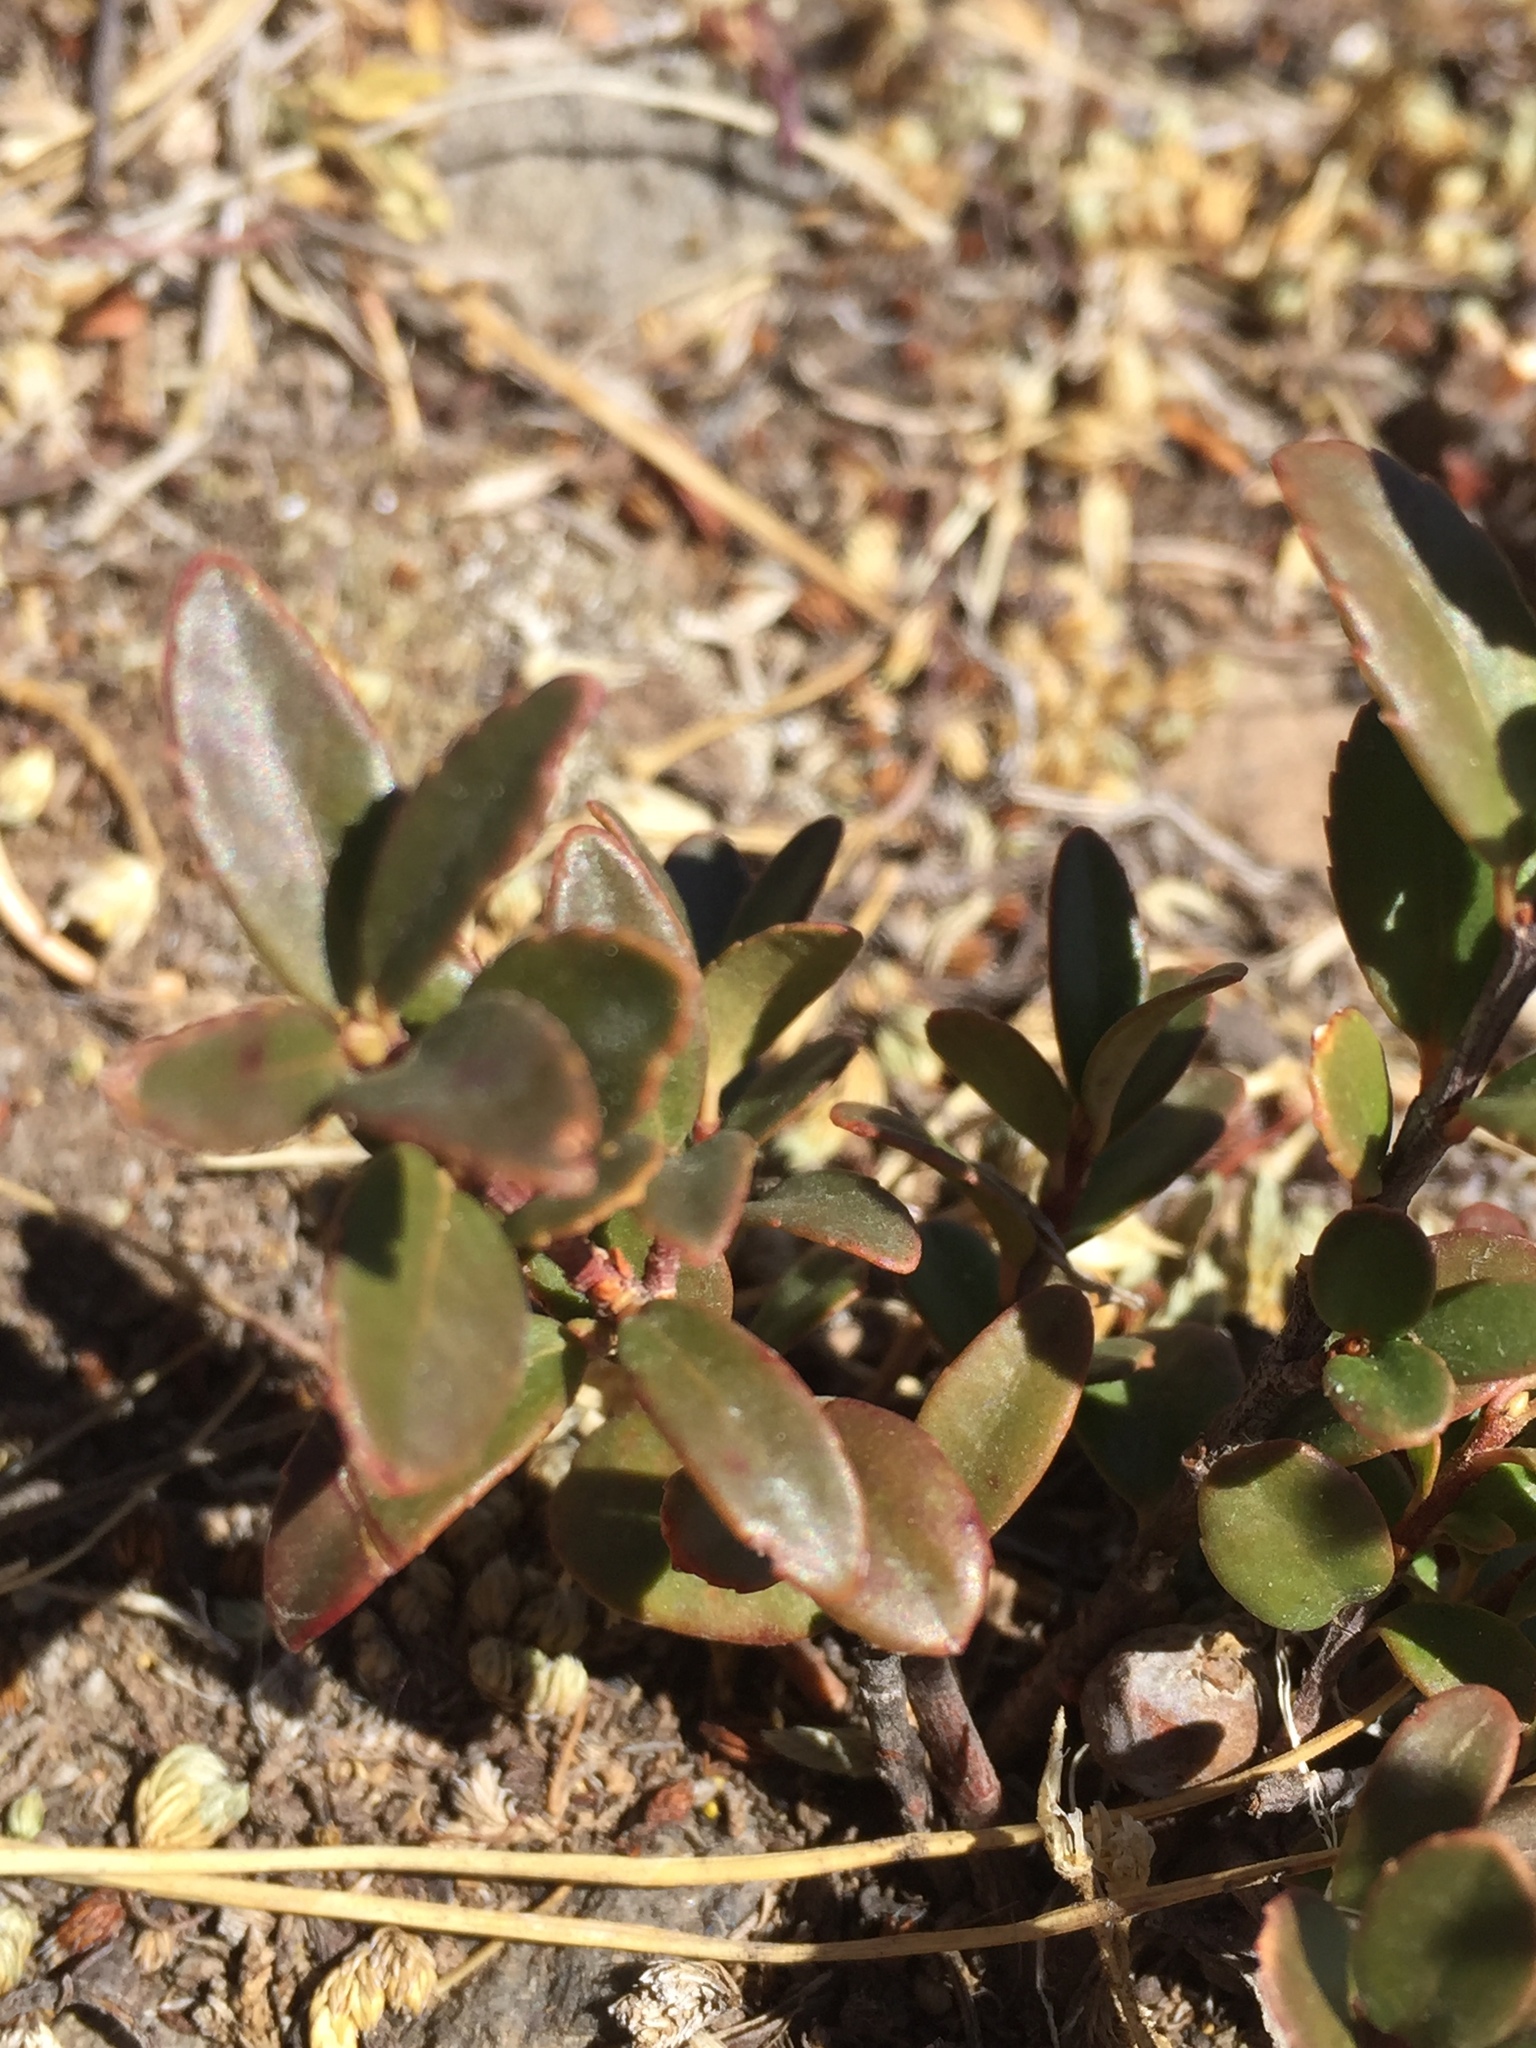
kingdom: Plantae
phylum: Tracheophyta
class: Magnoliopsida
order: Celastrales
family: Celastraceae
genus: Paxistima
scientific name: Paxistima myrsinites
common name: Mountain-lover
